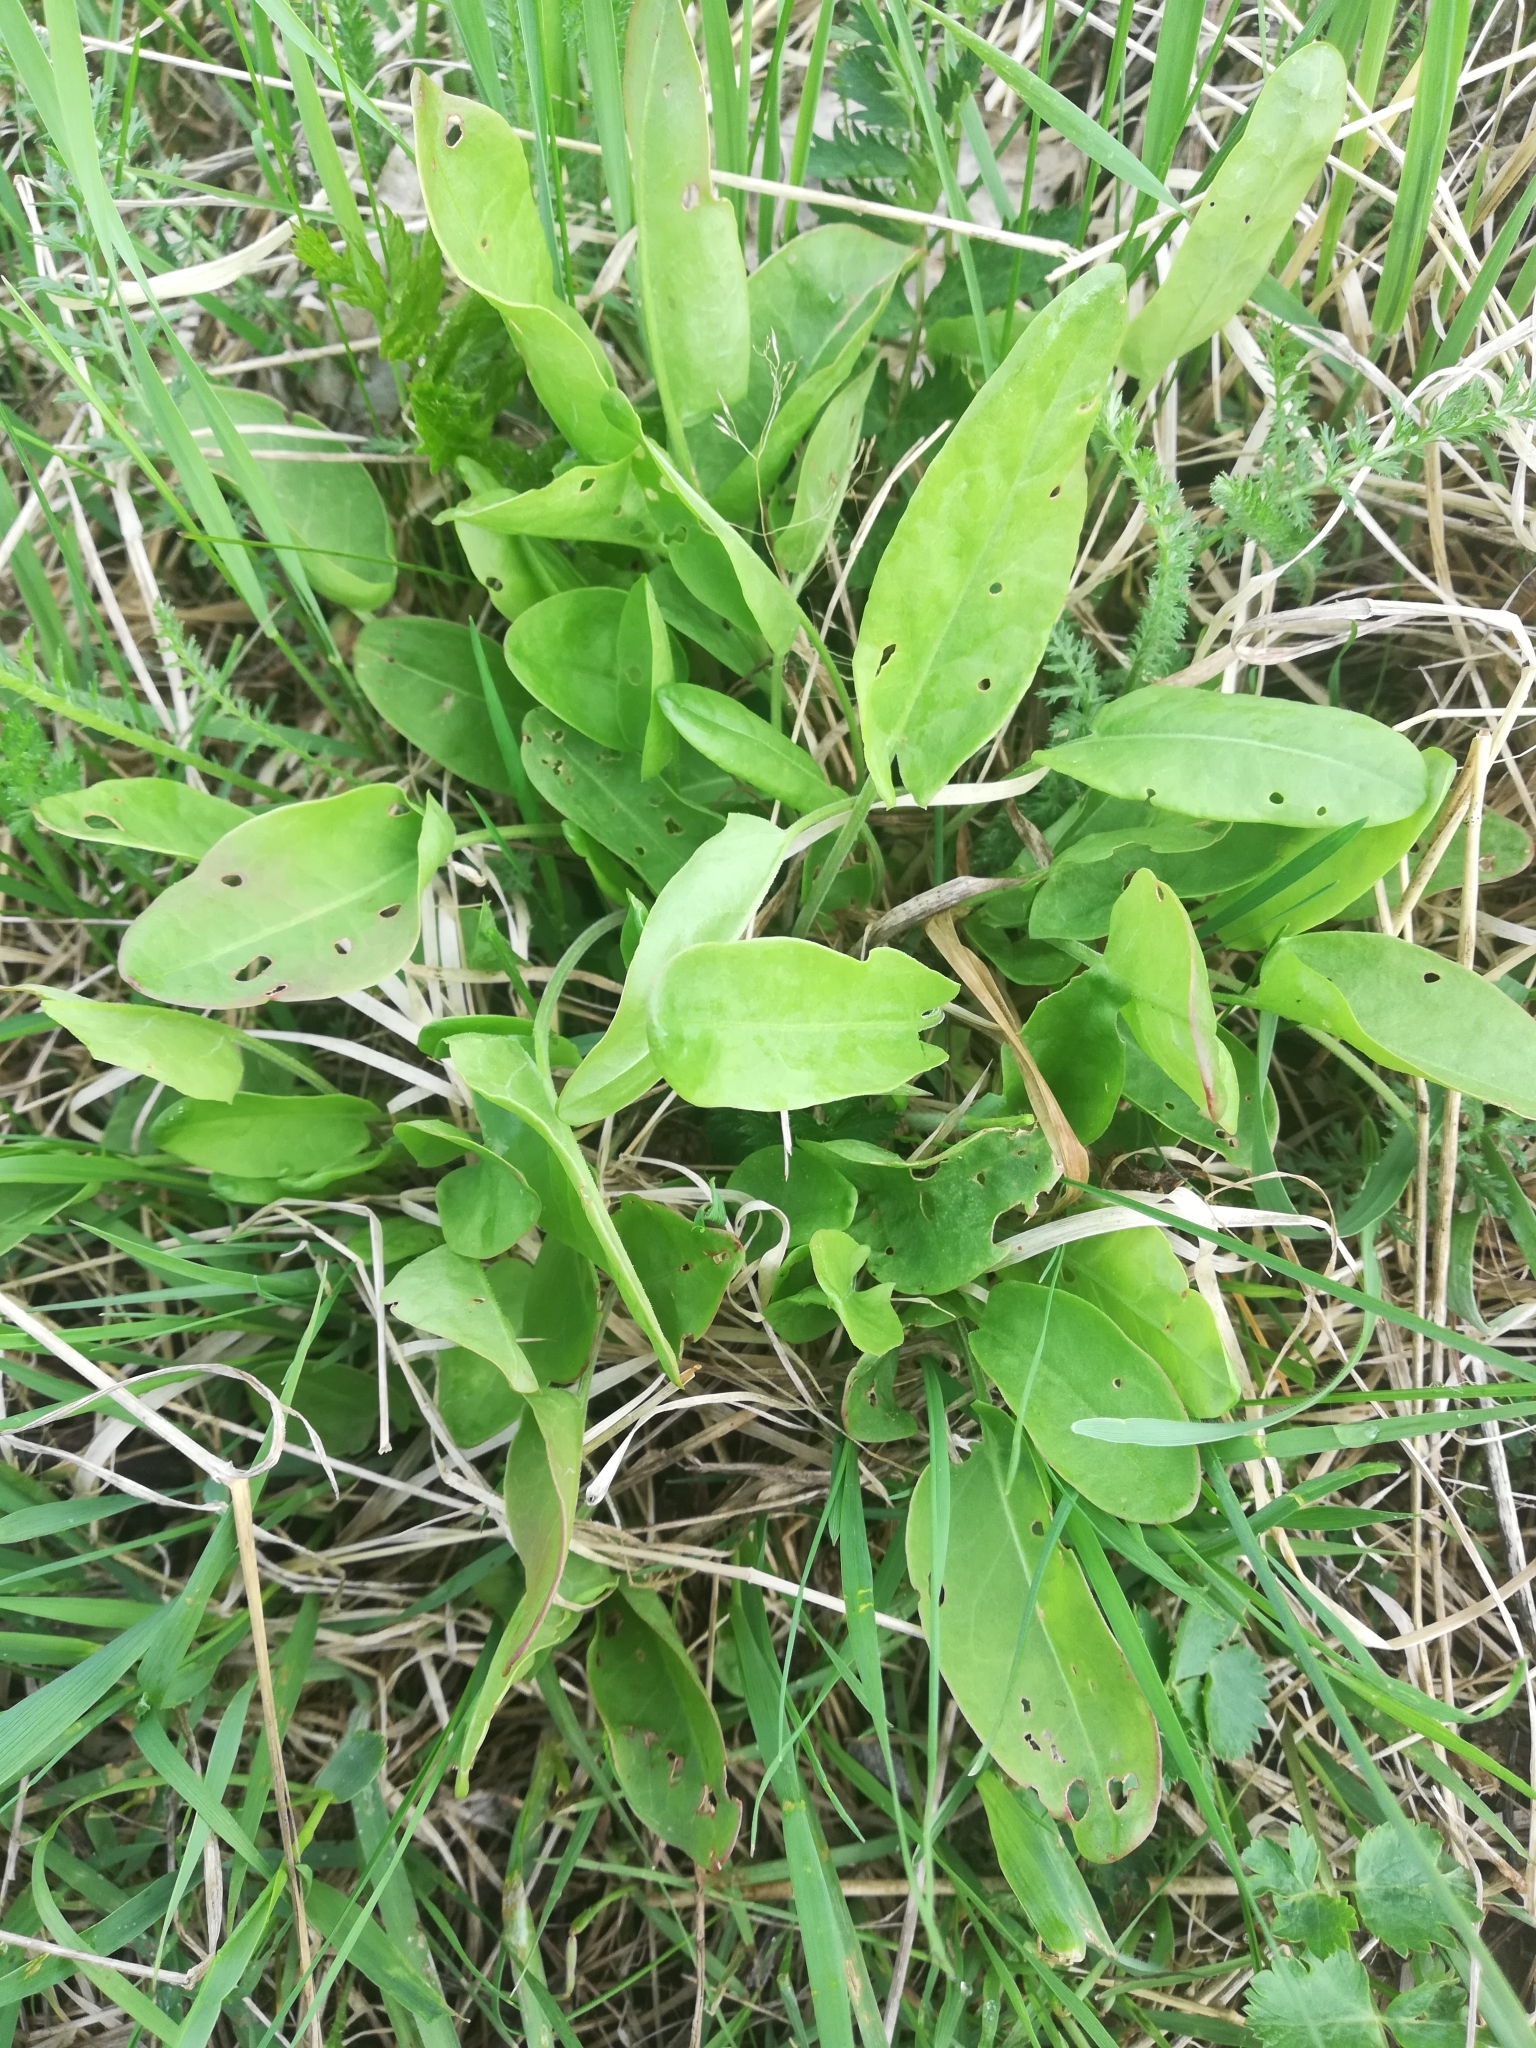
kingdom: Plantae
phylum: Tracheophyta
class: Magnoliopsida
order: Caryophyllales
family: Polygonaceae
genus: Rumex
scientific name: Rumex acetosa
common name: Garden sorrel
